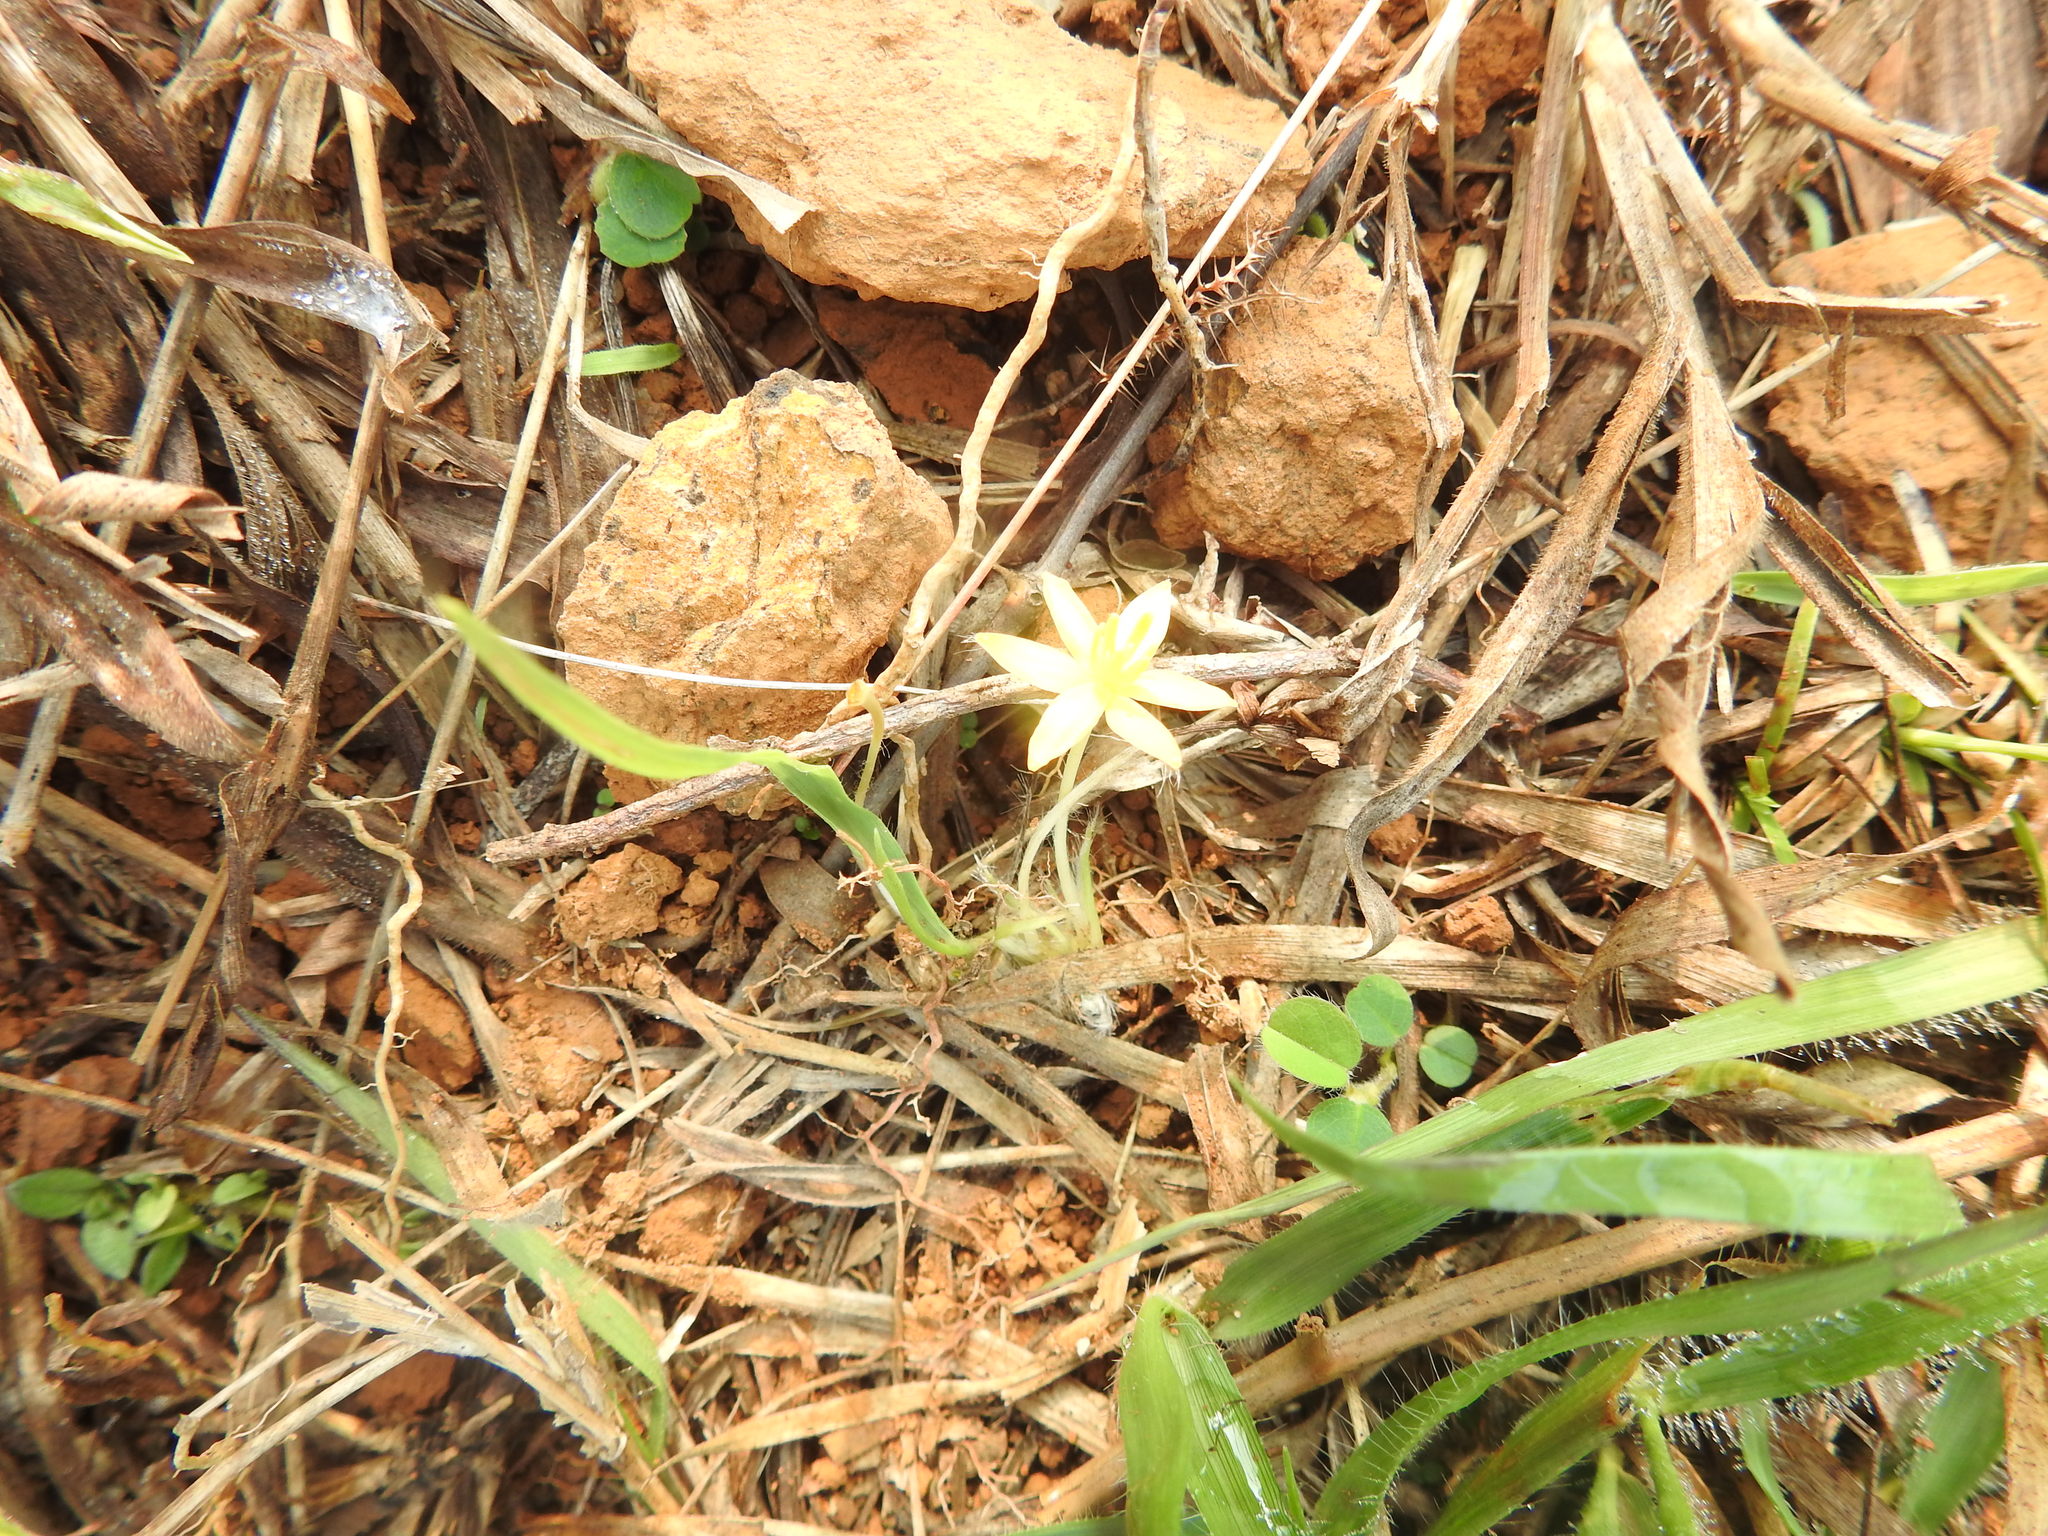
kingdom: Plantae
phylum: Tracheophyta
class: Liliopsida
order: Asparagales
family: Hypoxidaceae
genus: Curculigo
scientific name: Curculigo orchioides
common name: Golden eye-grass
